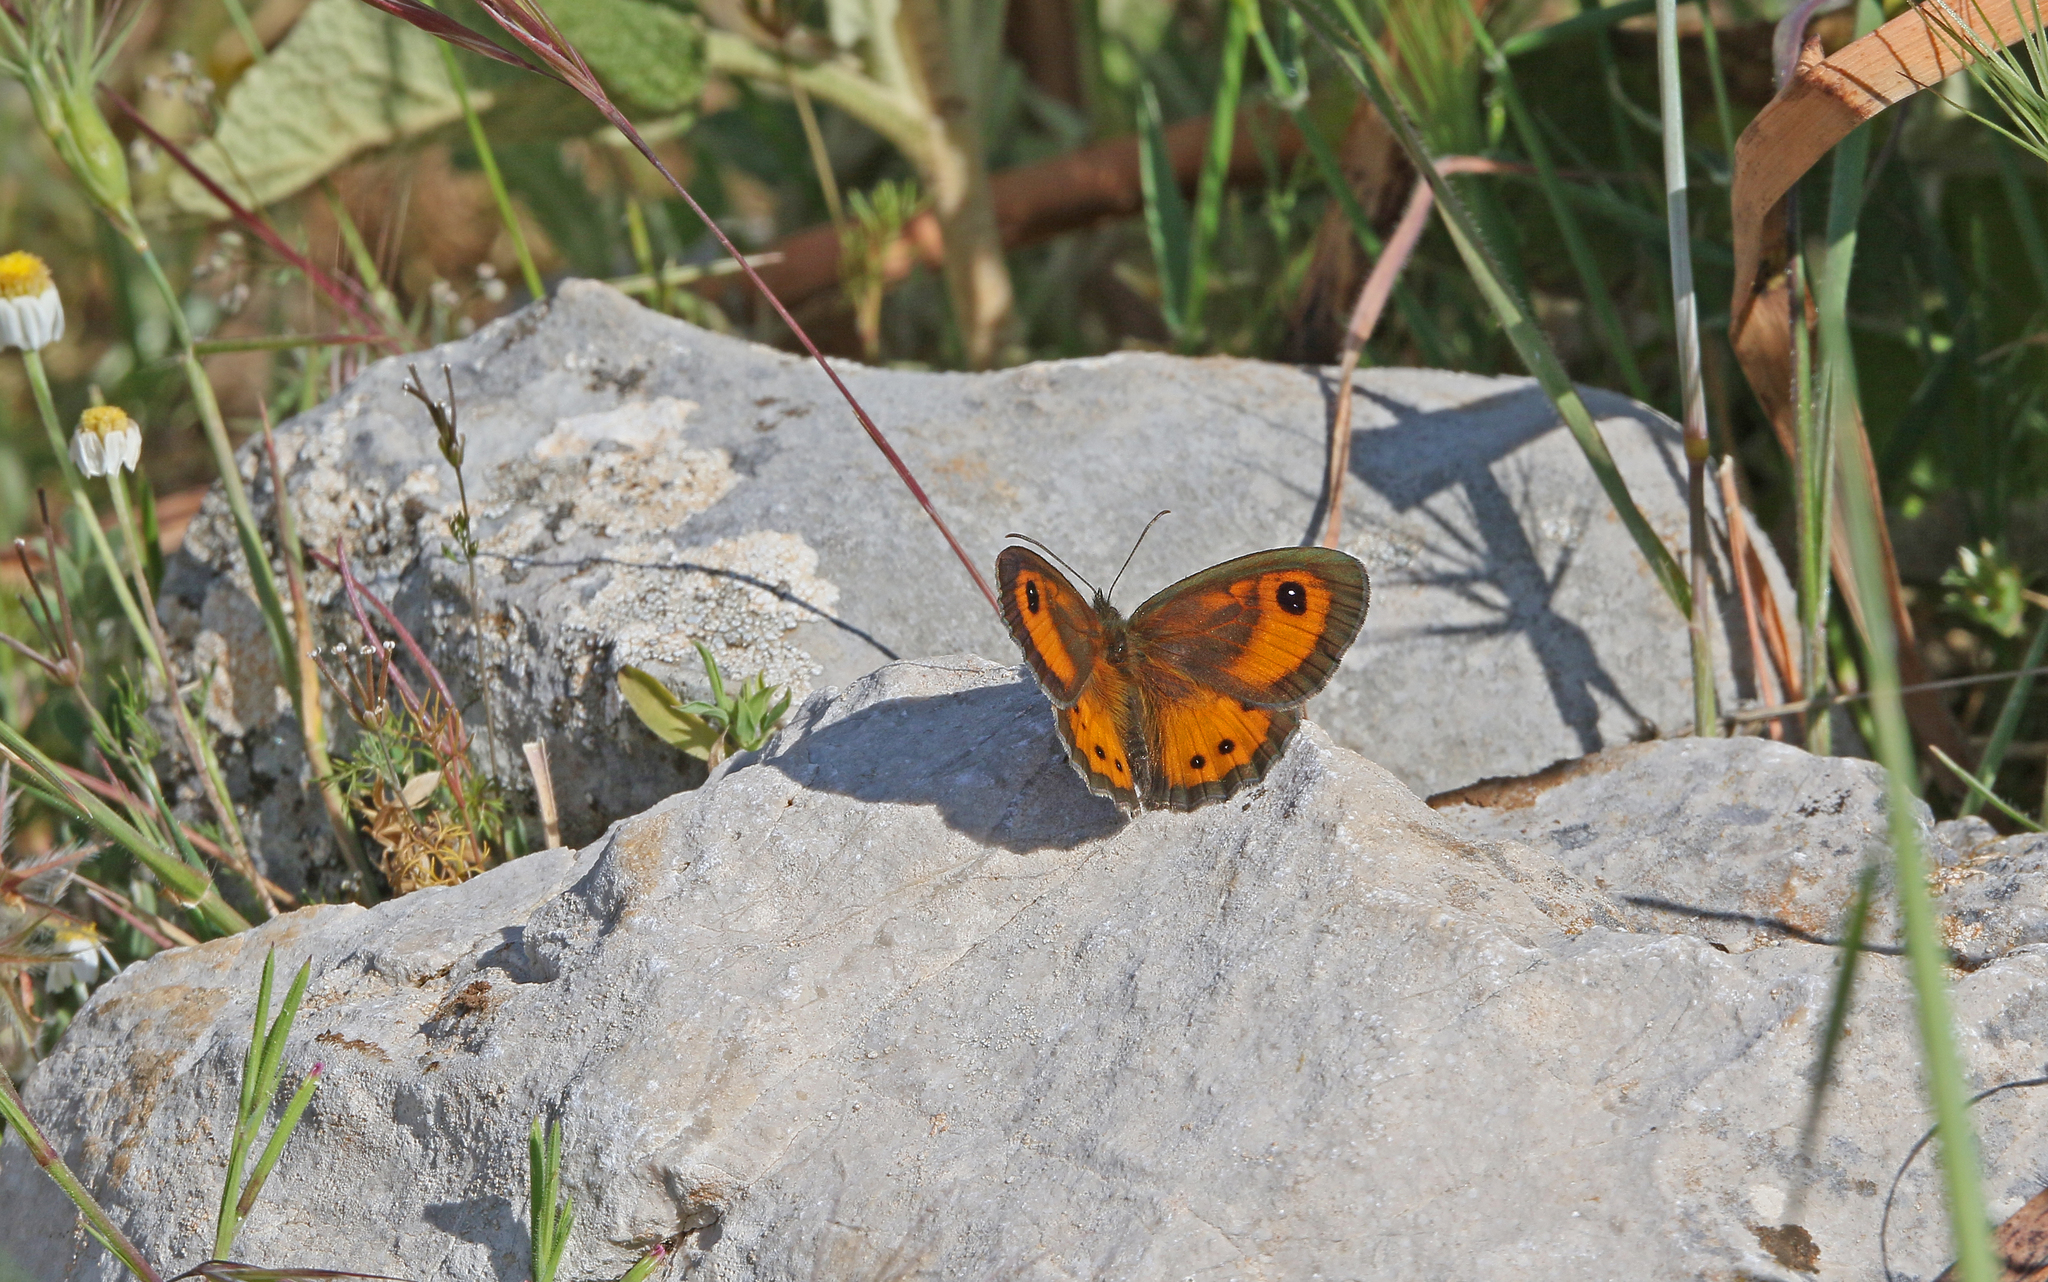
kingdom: Animalia
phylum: Arthropoda
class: Insecta
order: Lepidoptera
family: Nymphalidae
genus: Pyronia
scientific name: Pyronia bathseba
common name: Spanish gatekeeper
